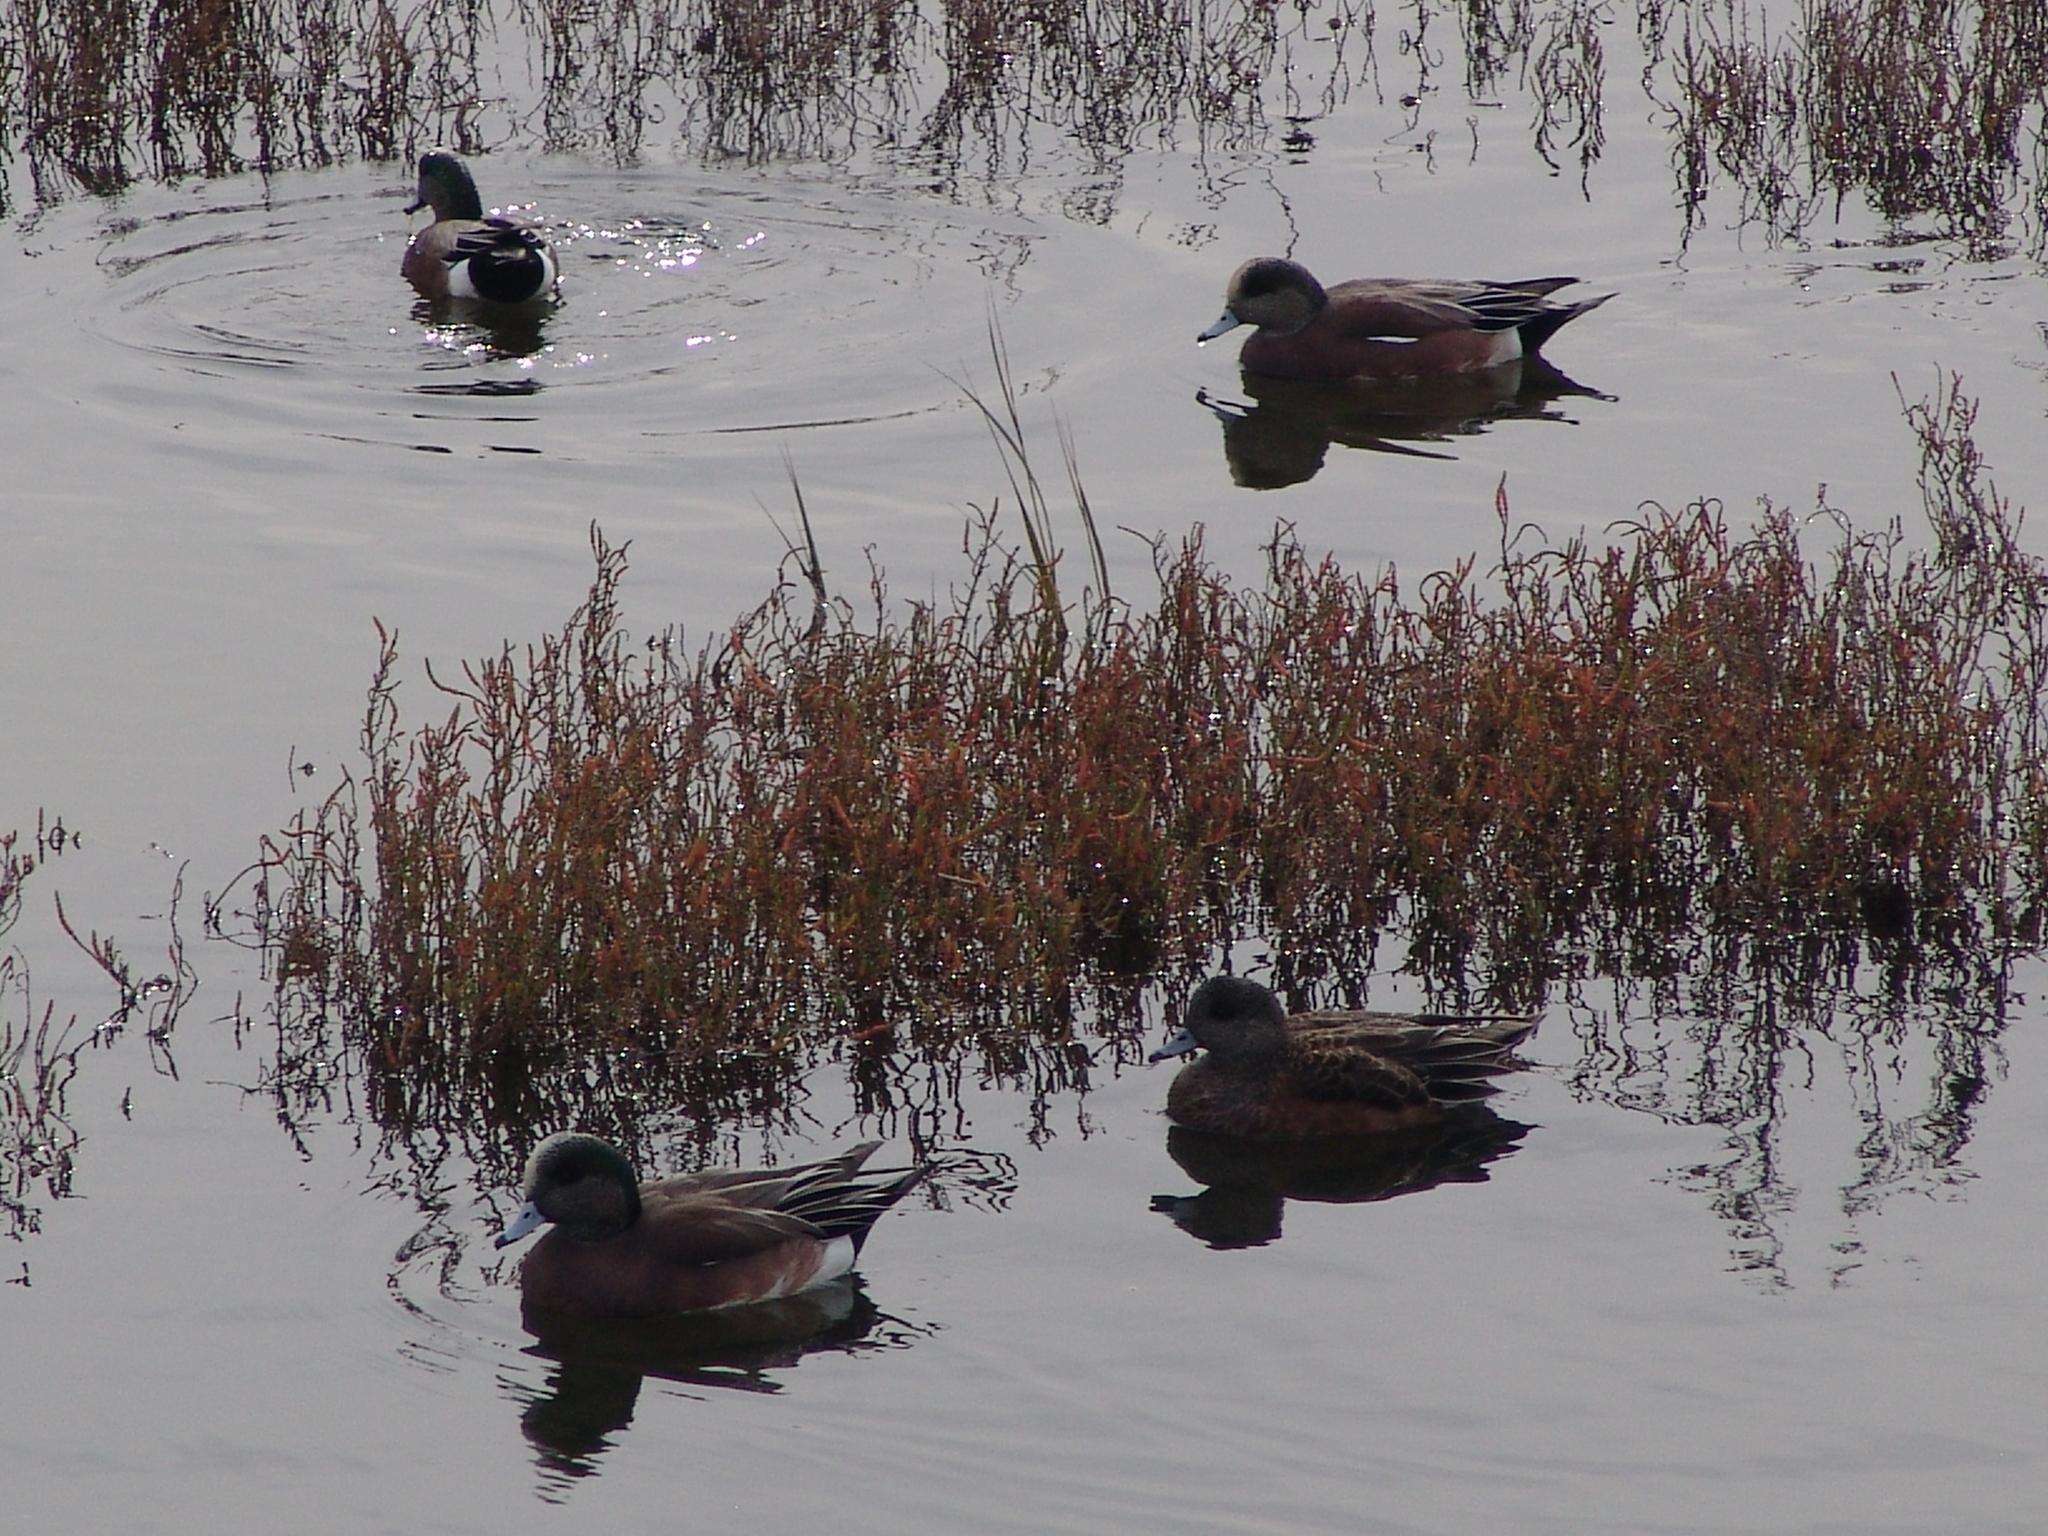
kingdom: Animalia
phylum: Chordata
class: Aves
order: Anseriformes
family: Anatidae
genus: Mareca
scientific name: Mareca americana
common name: American wigeon
